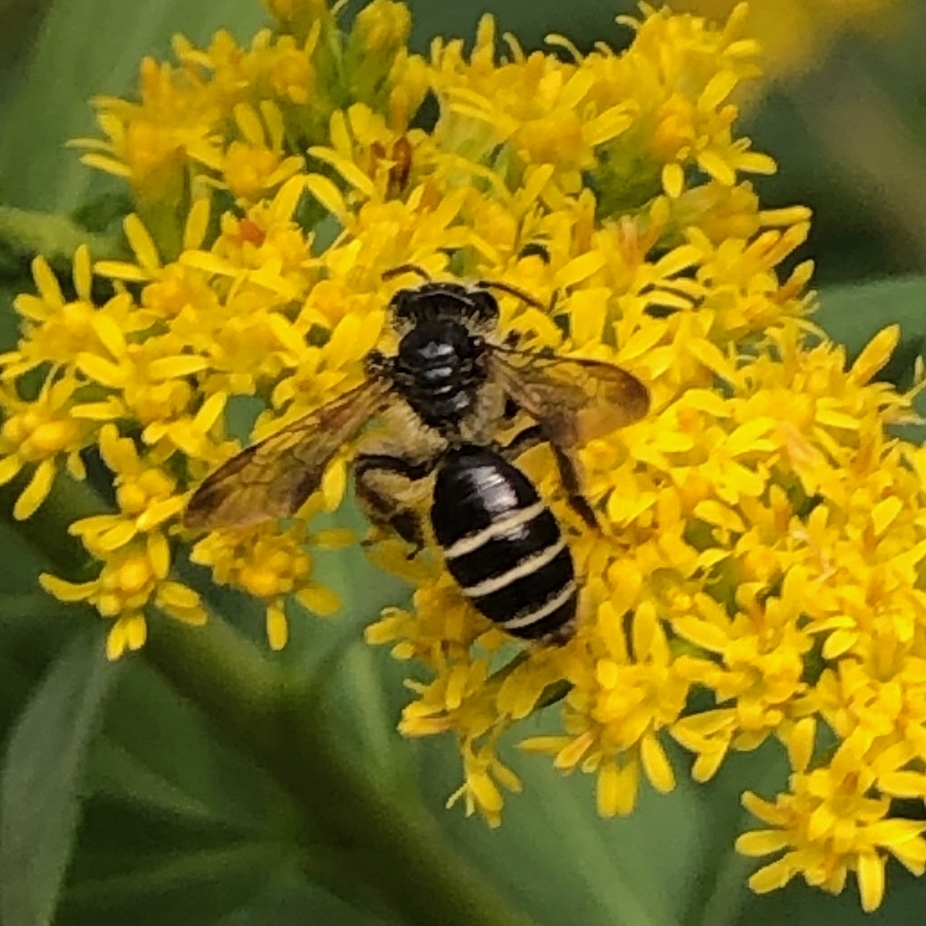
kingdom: Animalia
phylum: Arthropoda
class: Insecta
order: Hymenoptera
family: Andrenidae
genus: Andrena
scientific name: Andrena nubecula
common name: Cloudy-winged mining bee
